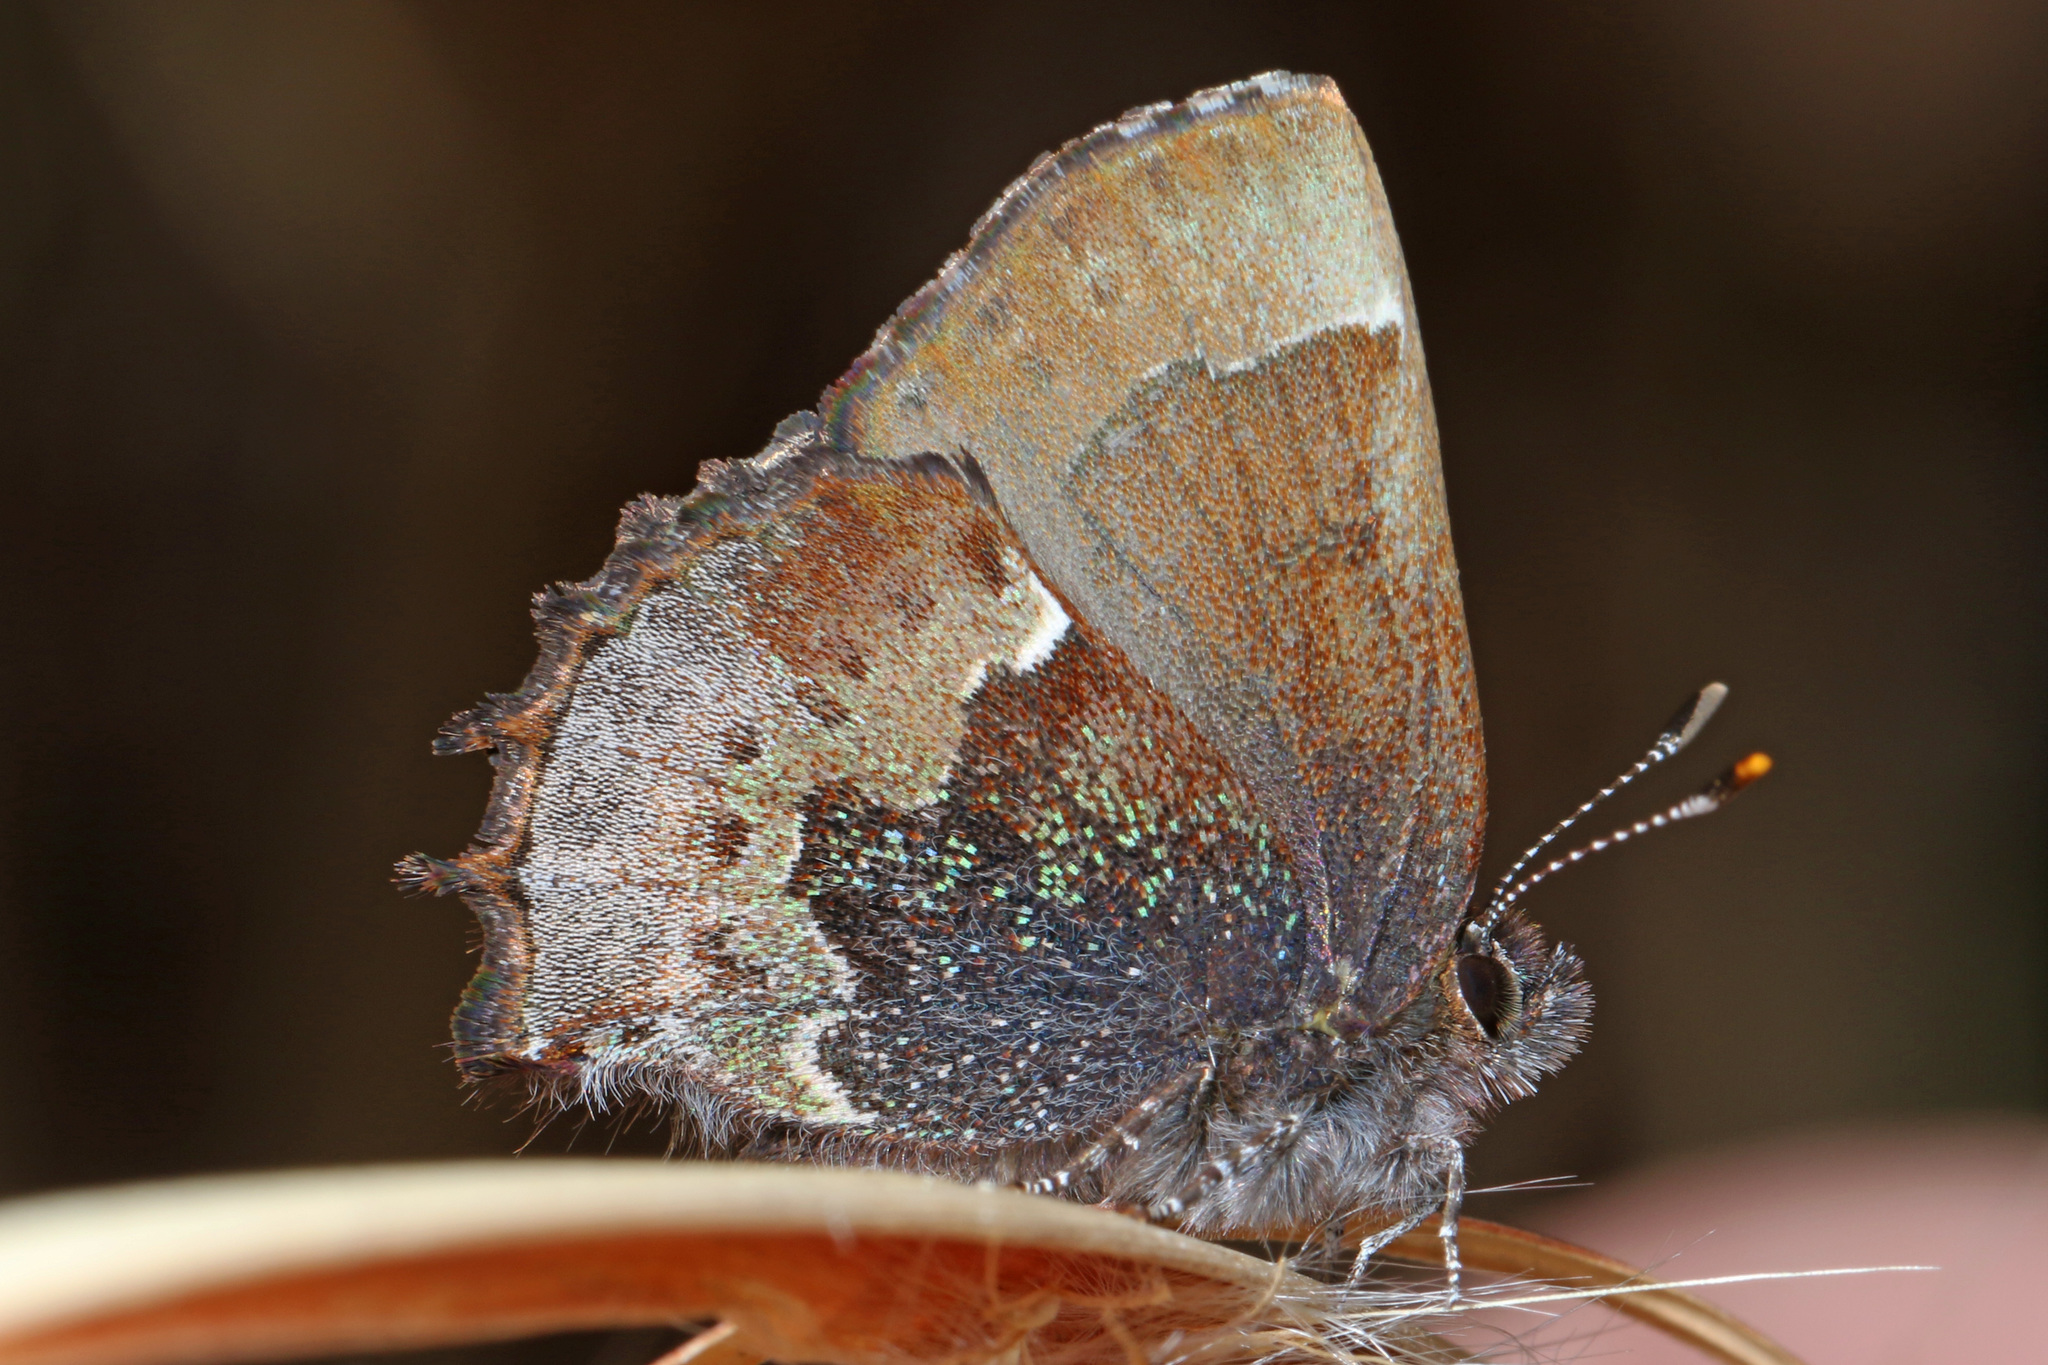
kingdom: Animalia
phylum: Arthropoda
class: Insecta
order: Lepidoptera
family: Lycaenidae
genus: Incisalia
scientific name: Incisalia henrici
